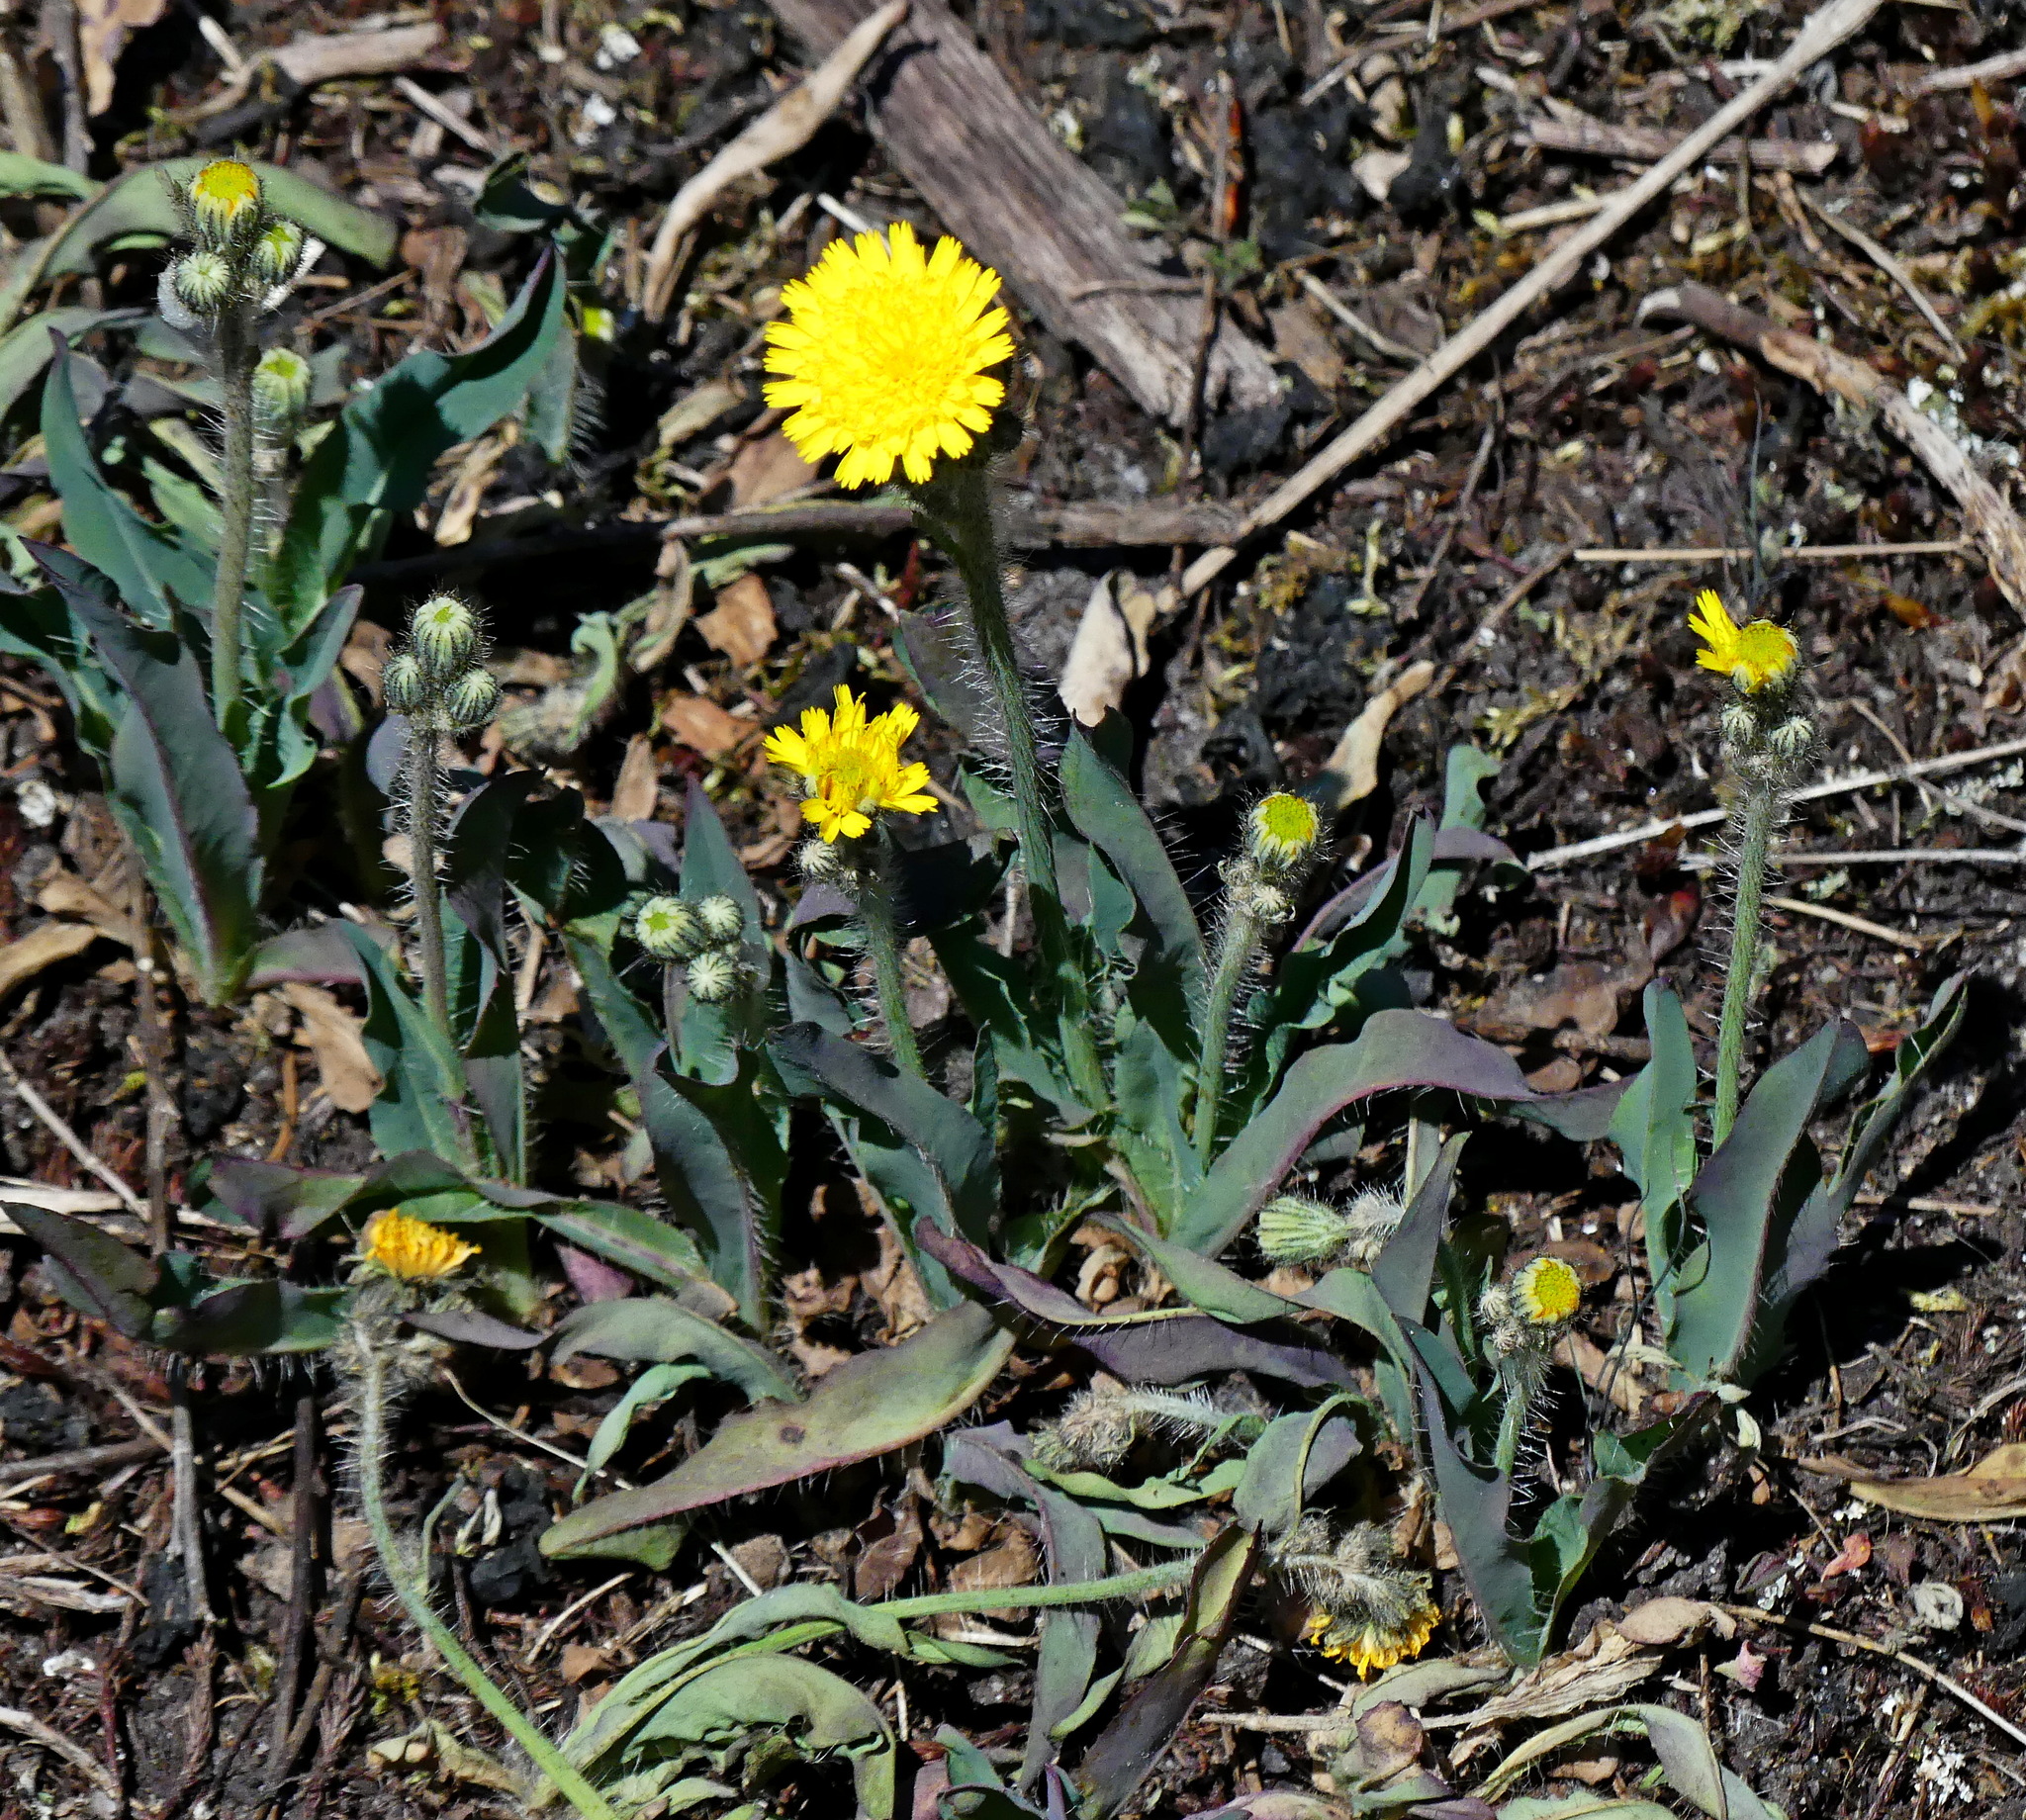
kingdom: Plantae
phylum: Tracheophyta
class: Magnoliopsida
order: Asterales
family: Asteraceae
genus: Pilosella
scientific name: Pilosella piloselloides
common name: Glaucous king-devil
